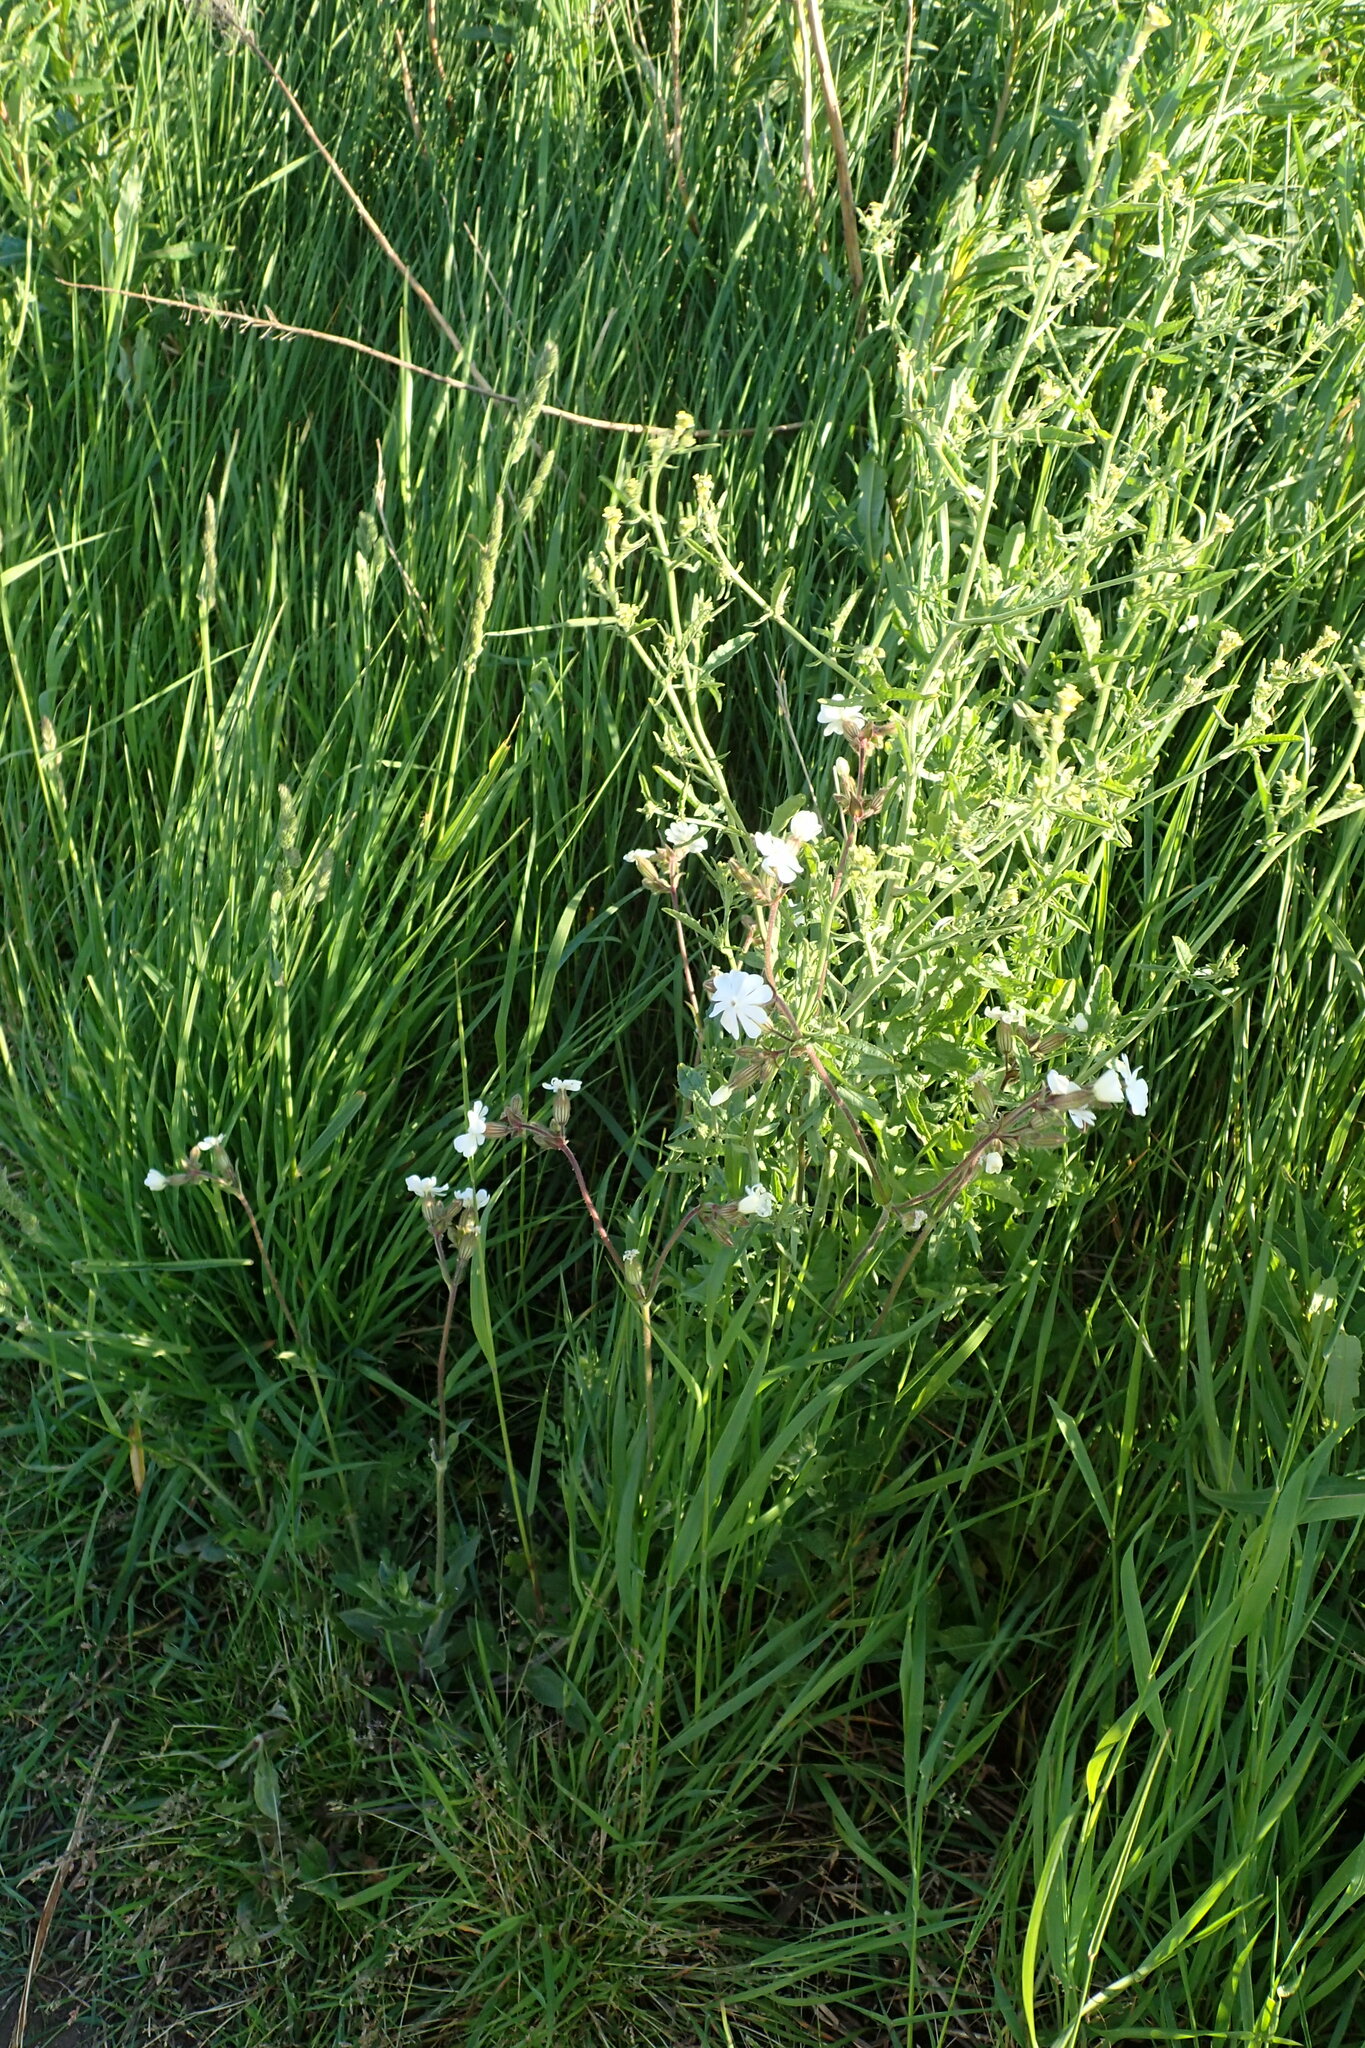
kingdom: Plantae
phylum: Tracheophyta
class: Magnoliopsida
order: Caryophyllales
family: Caryophyllaceae
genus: Silene
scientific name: Silene latifolia
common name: White campion
